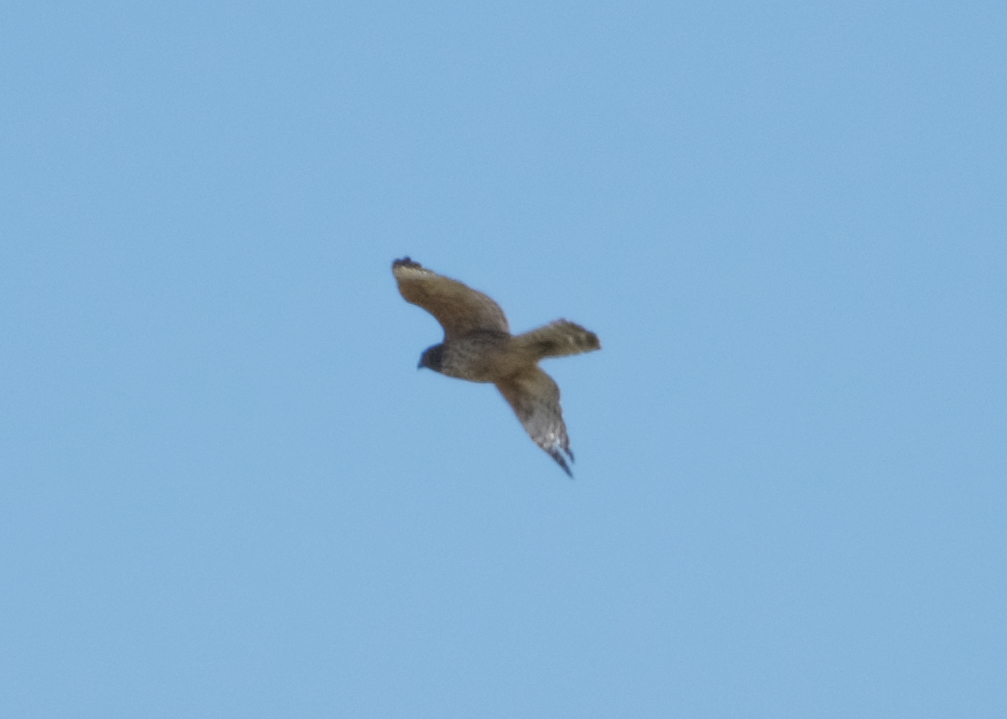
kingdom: Animalia
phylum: Chordata
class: Aves
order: Accipitriformes
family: Accipitridae
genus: Buteo
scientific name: Buteo lineatus
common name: Red-shouldered hawk
